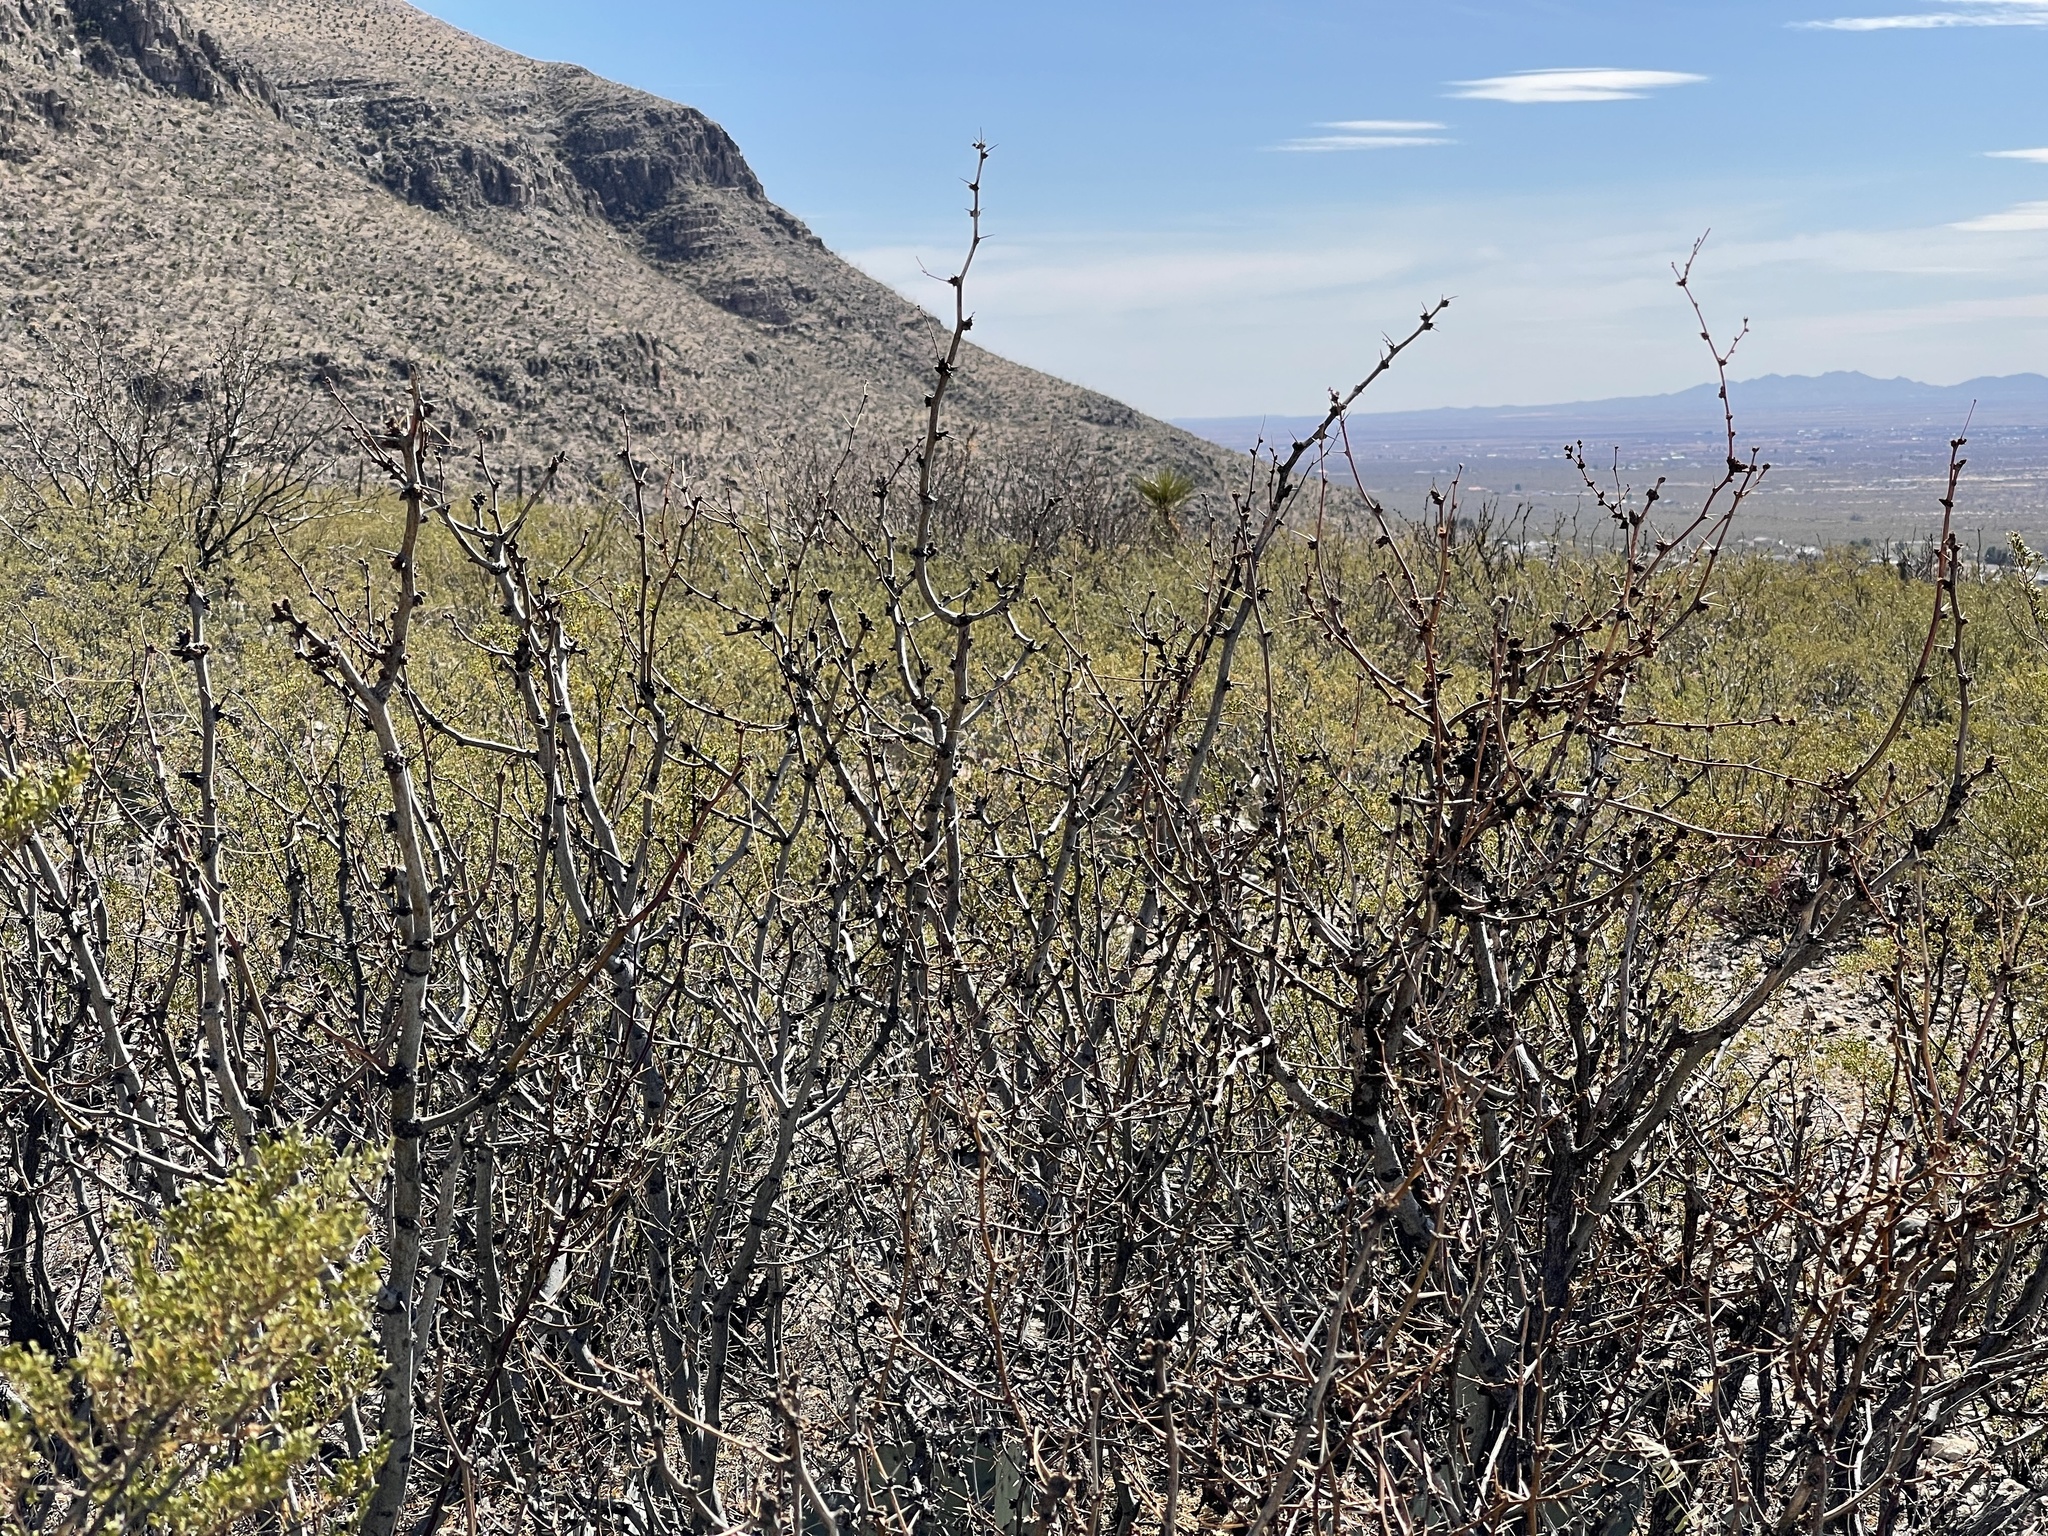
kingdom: Plantae
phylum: Tracheophyta
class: Magnoliopsida
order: Fabales
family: Fabaceae
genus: Prosopis
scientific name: Prosopis glandulosa
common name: Honey mesquite
